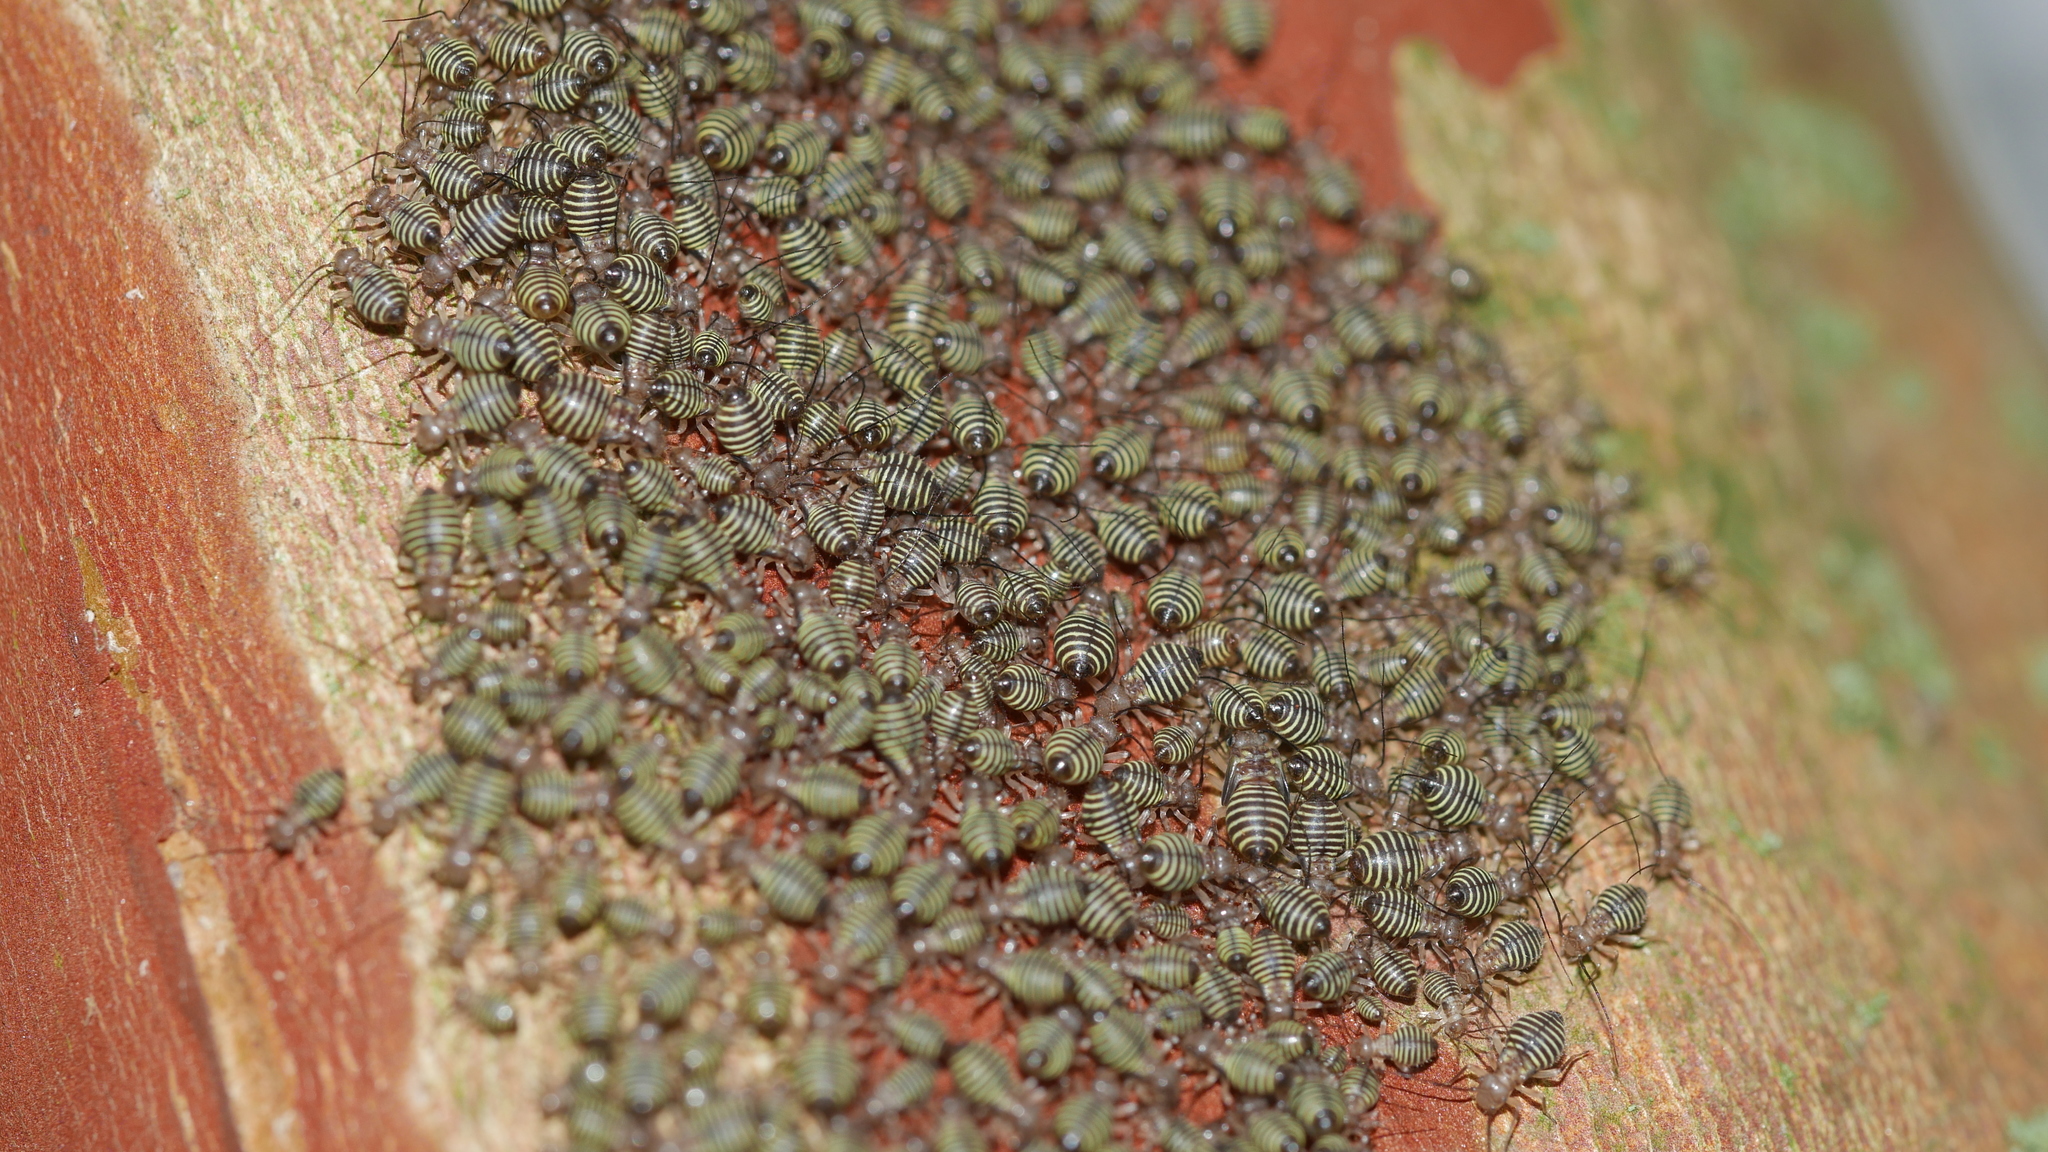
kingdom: Animalia
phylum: Arthropoda
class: Insecta
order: Psocodea
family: Psocidae
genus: Cerastipsocus
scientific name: Cerastipsocus venosus
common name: Tree cattle
